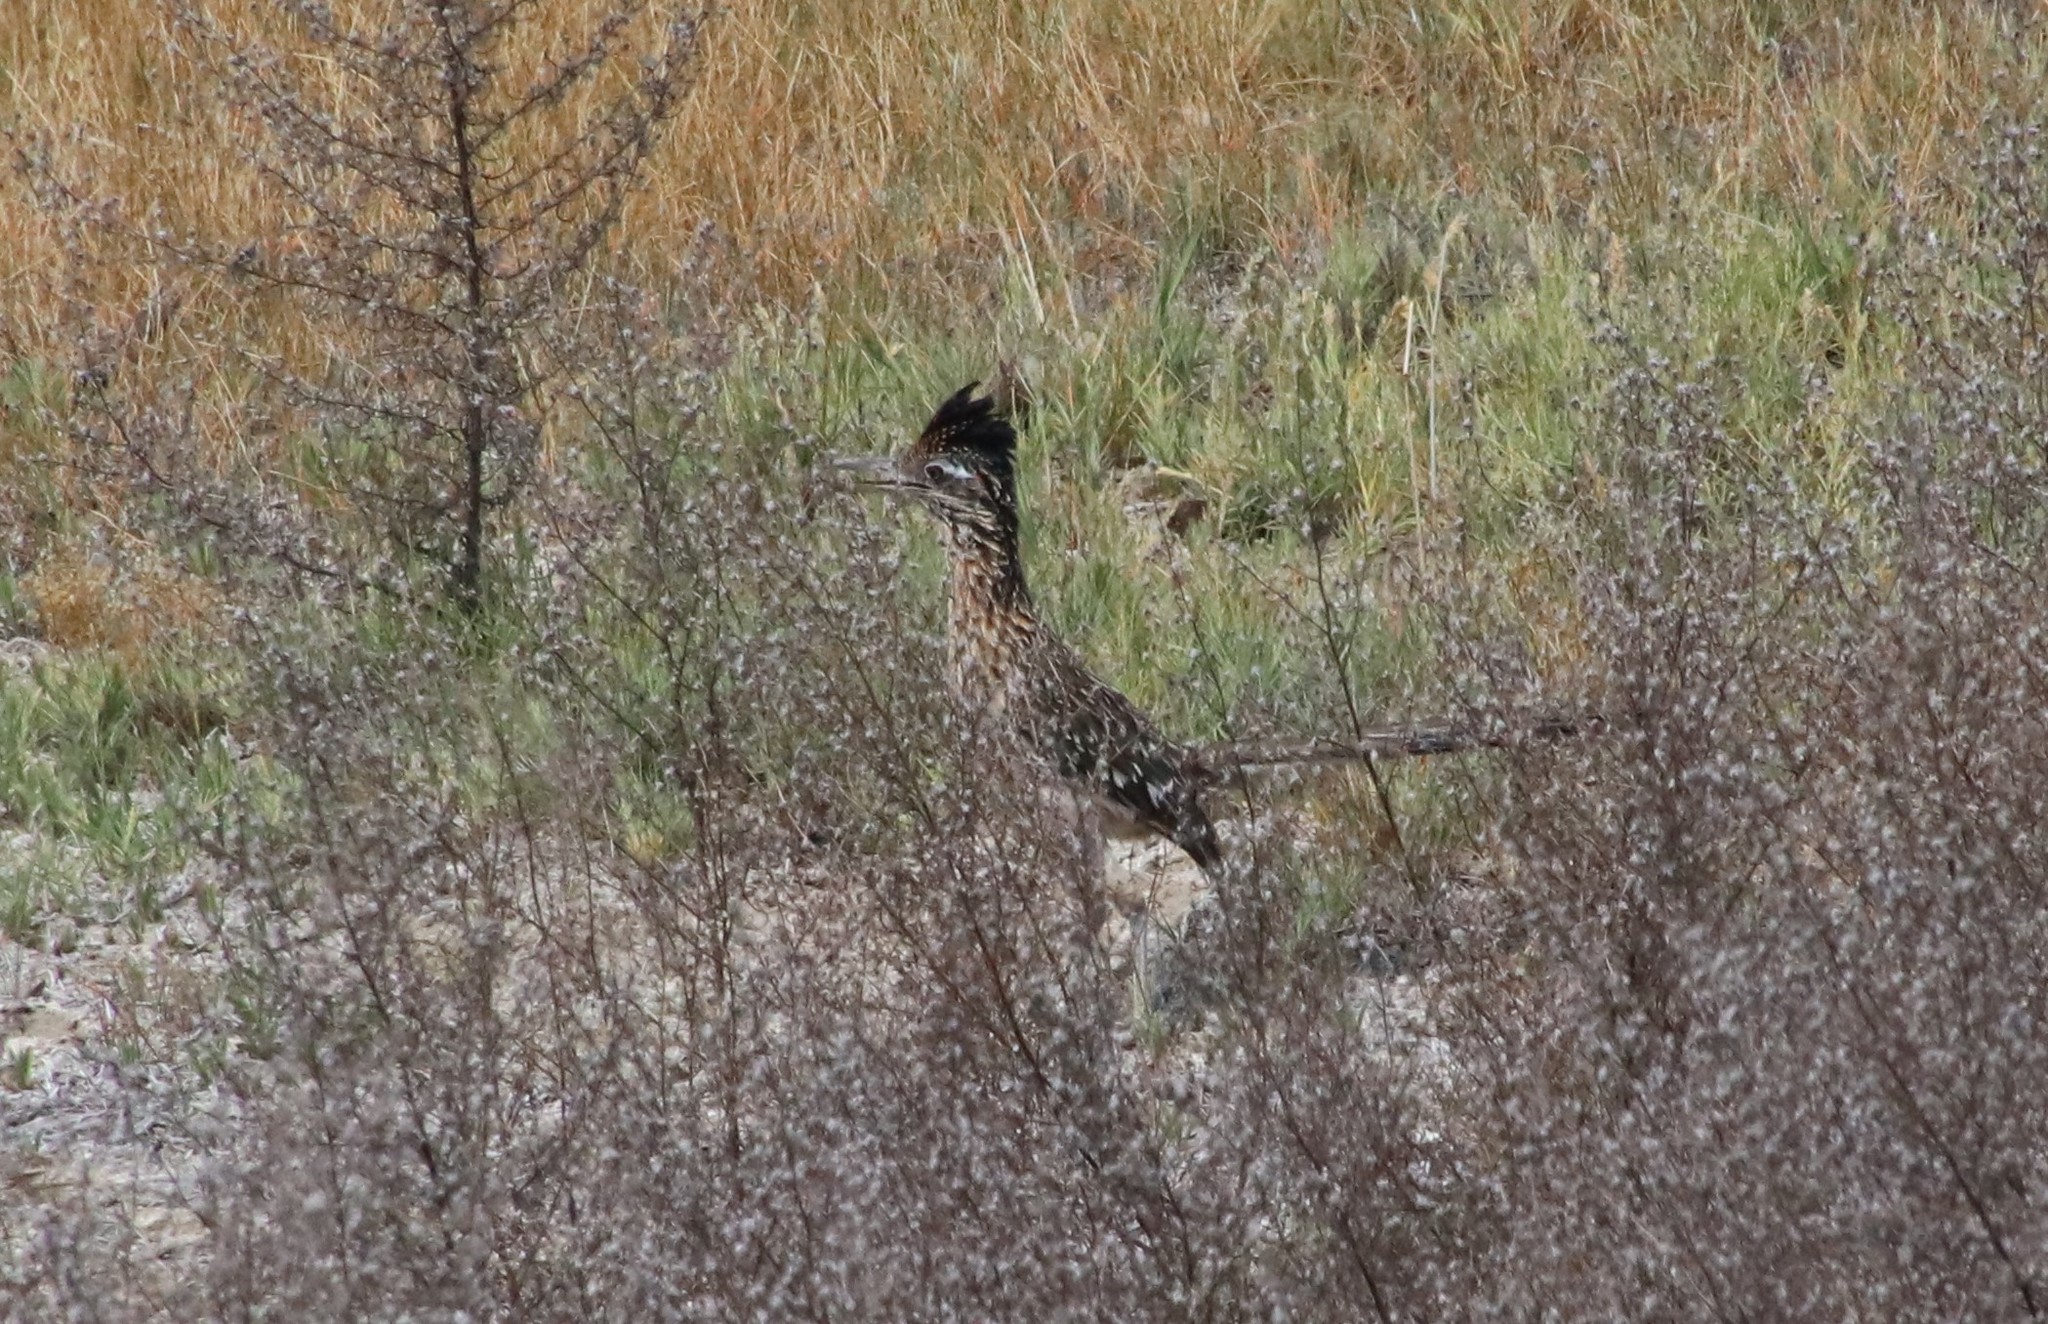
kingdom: Animalia
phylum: Chordata
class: Aves
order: Cuculiformes
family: Cuculidae
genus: Geococcyx
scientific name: Geococcyx californianus
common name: Greater roadrunner
